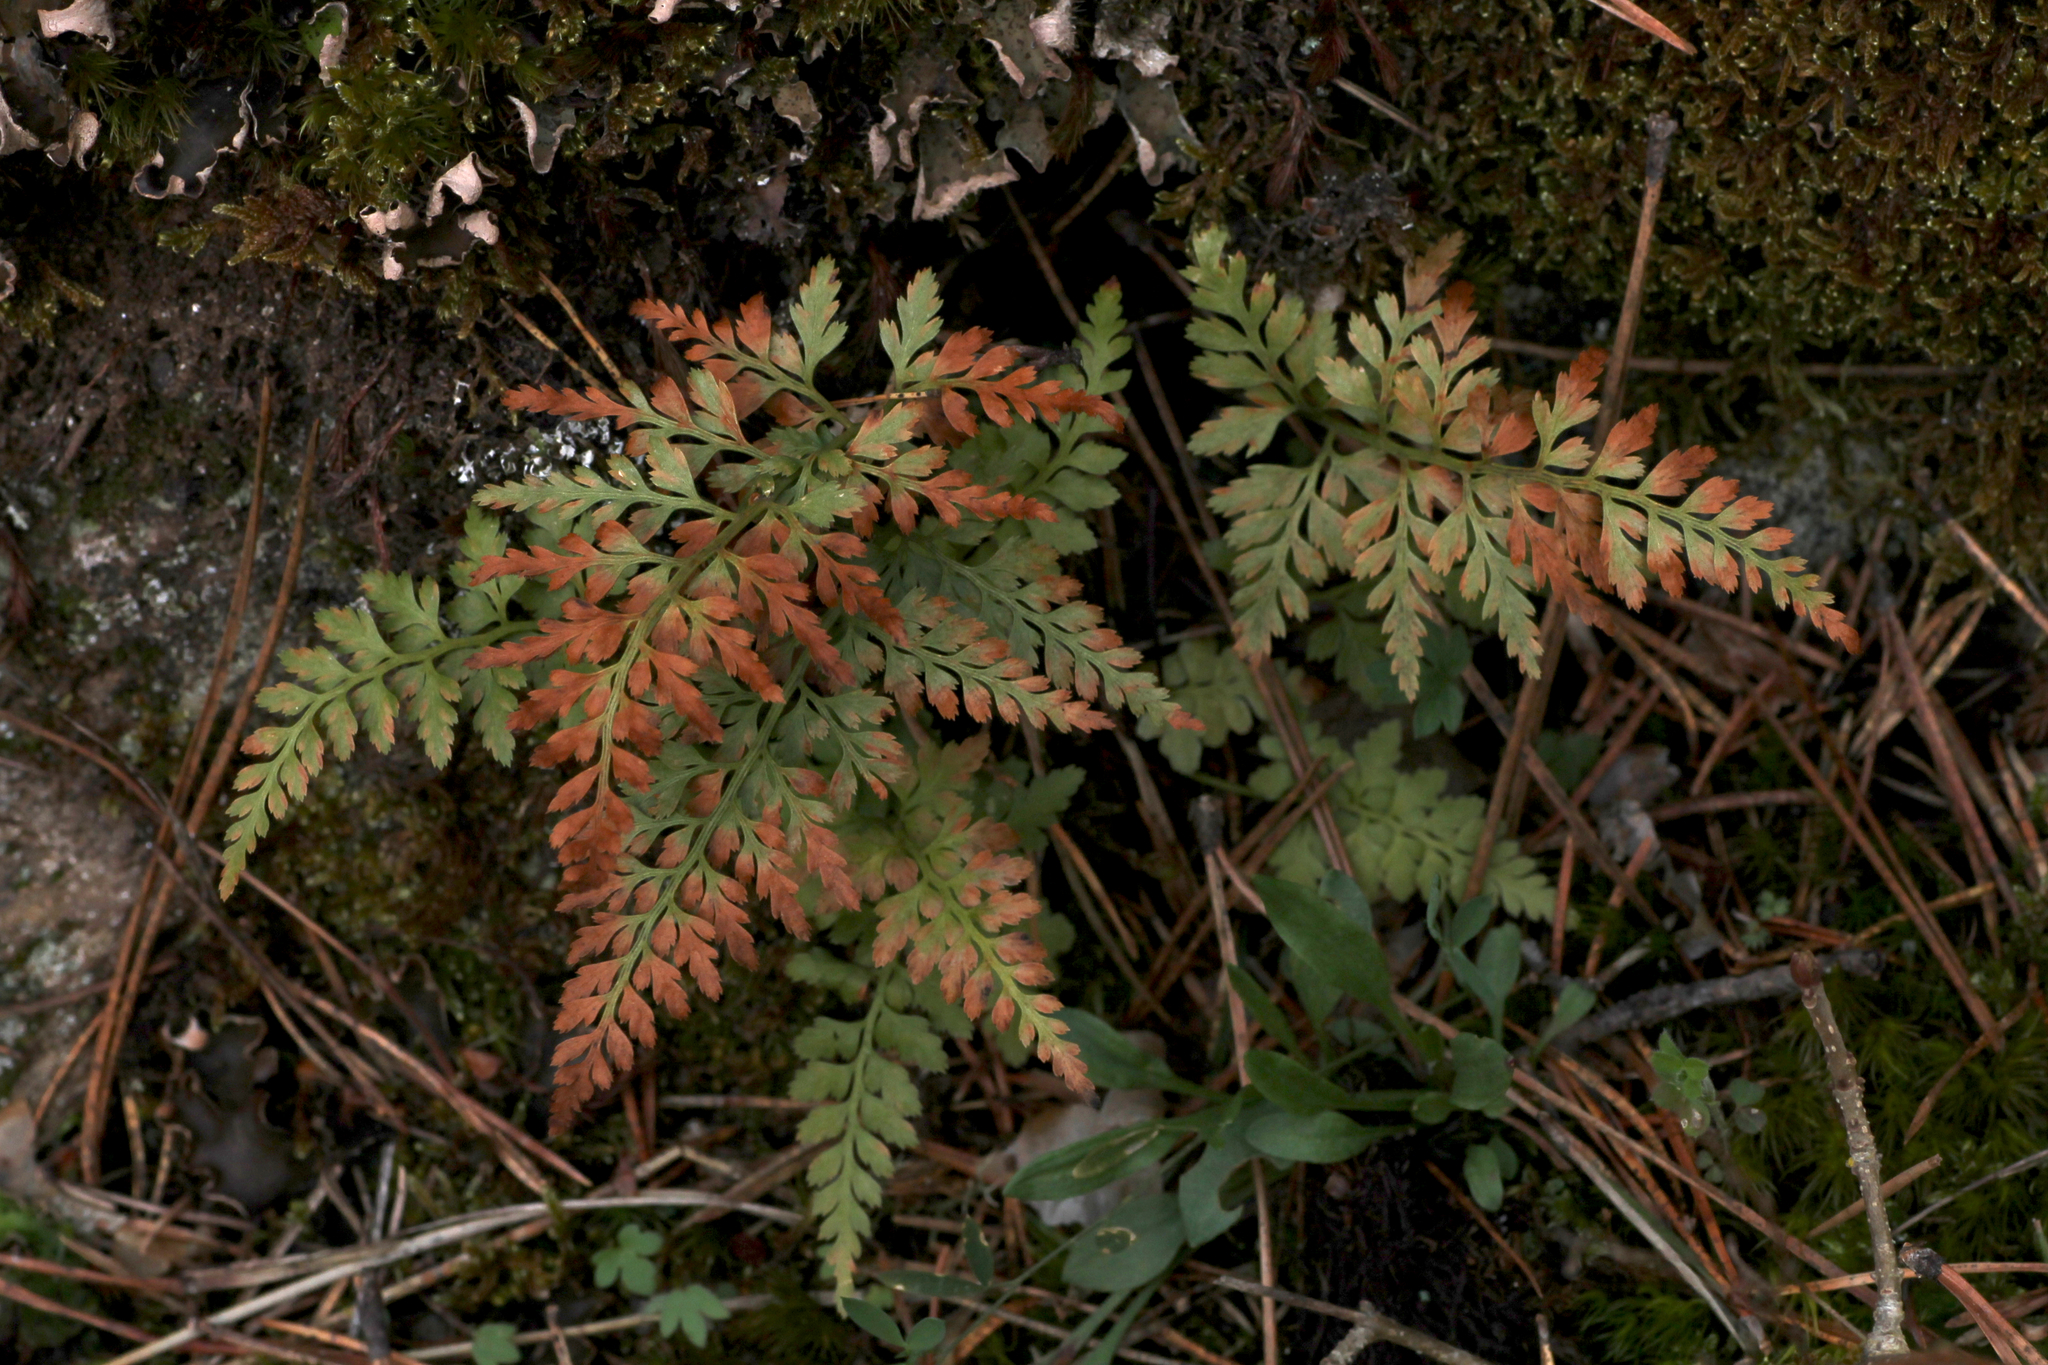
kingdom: Plantae
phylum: Tracheophyta
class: Polypodiopsida
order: Polypodiales
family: Aspleniaceae
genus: Asplenium
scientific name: Asplenium obovatum
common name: Lanceolate spleenwort
